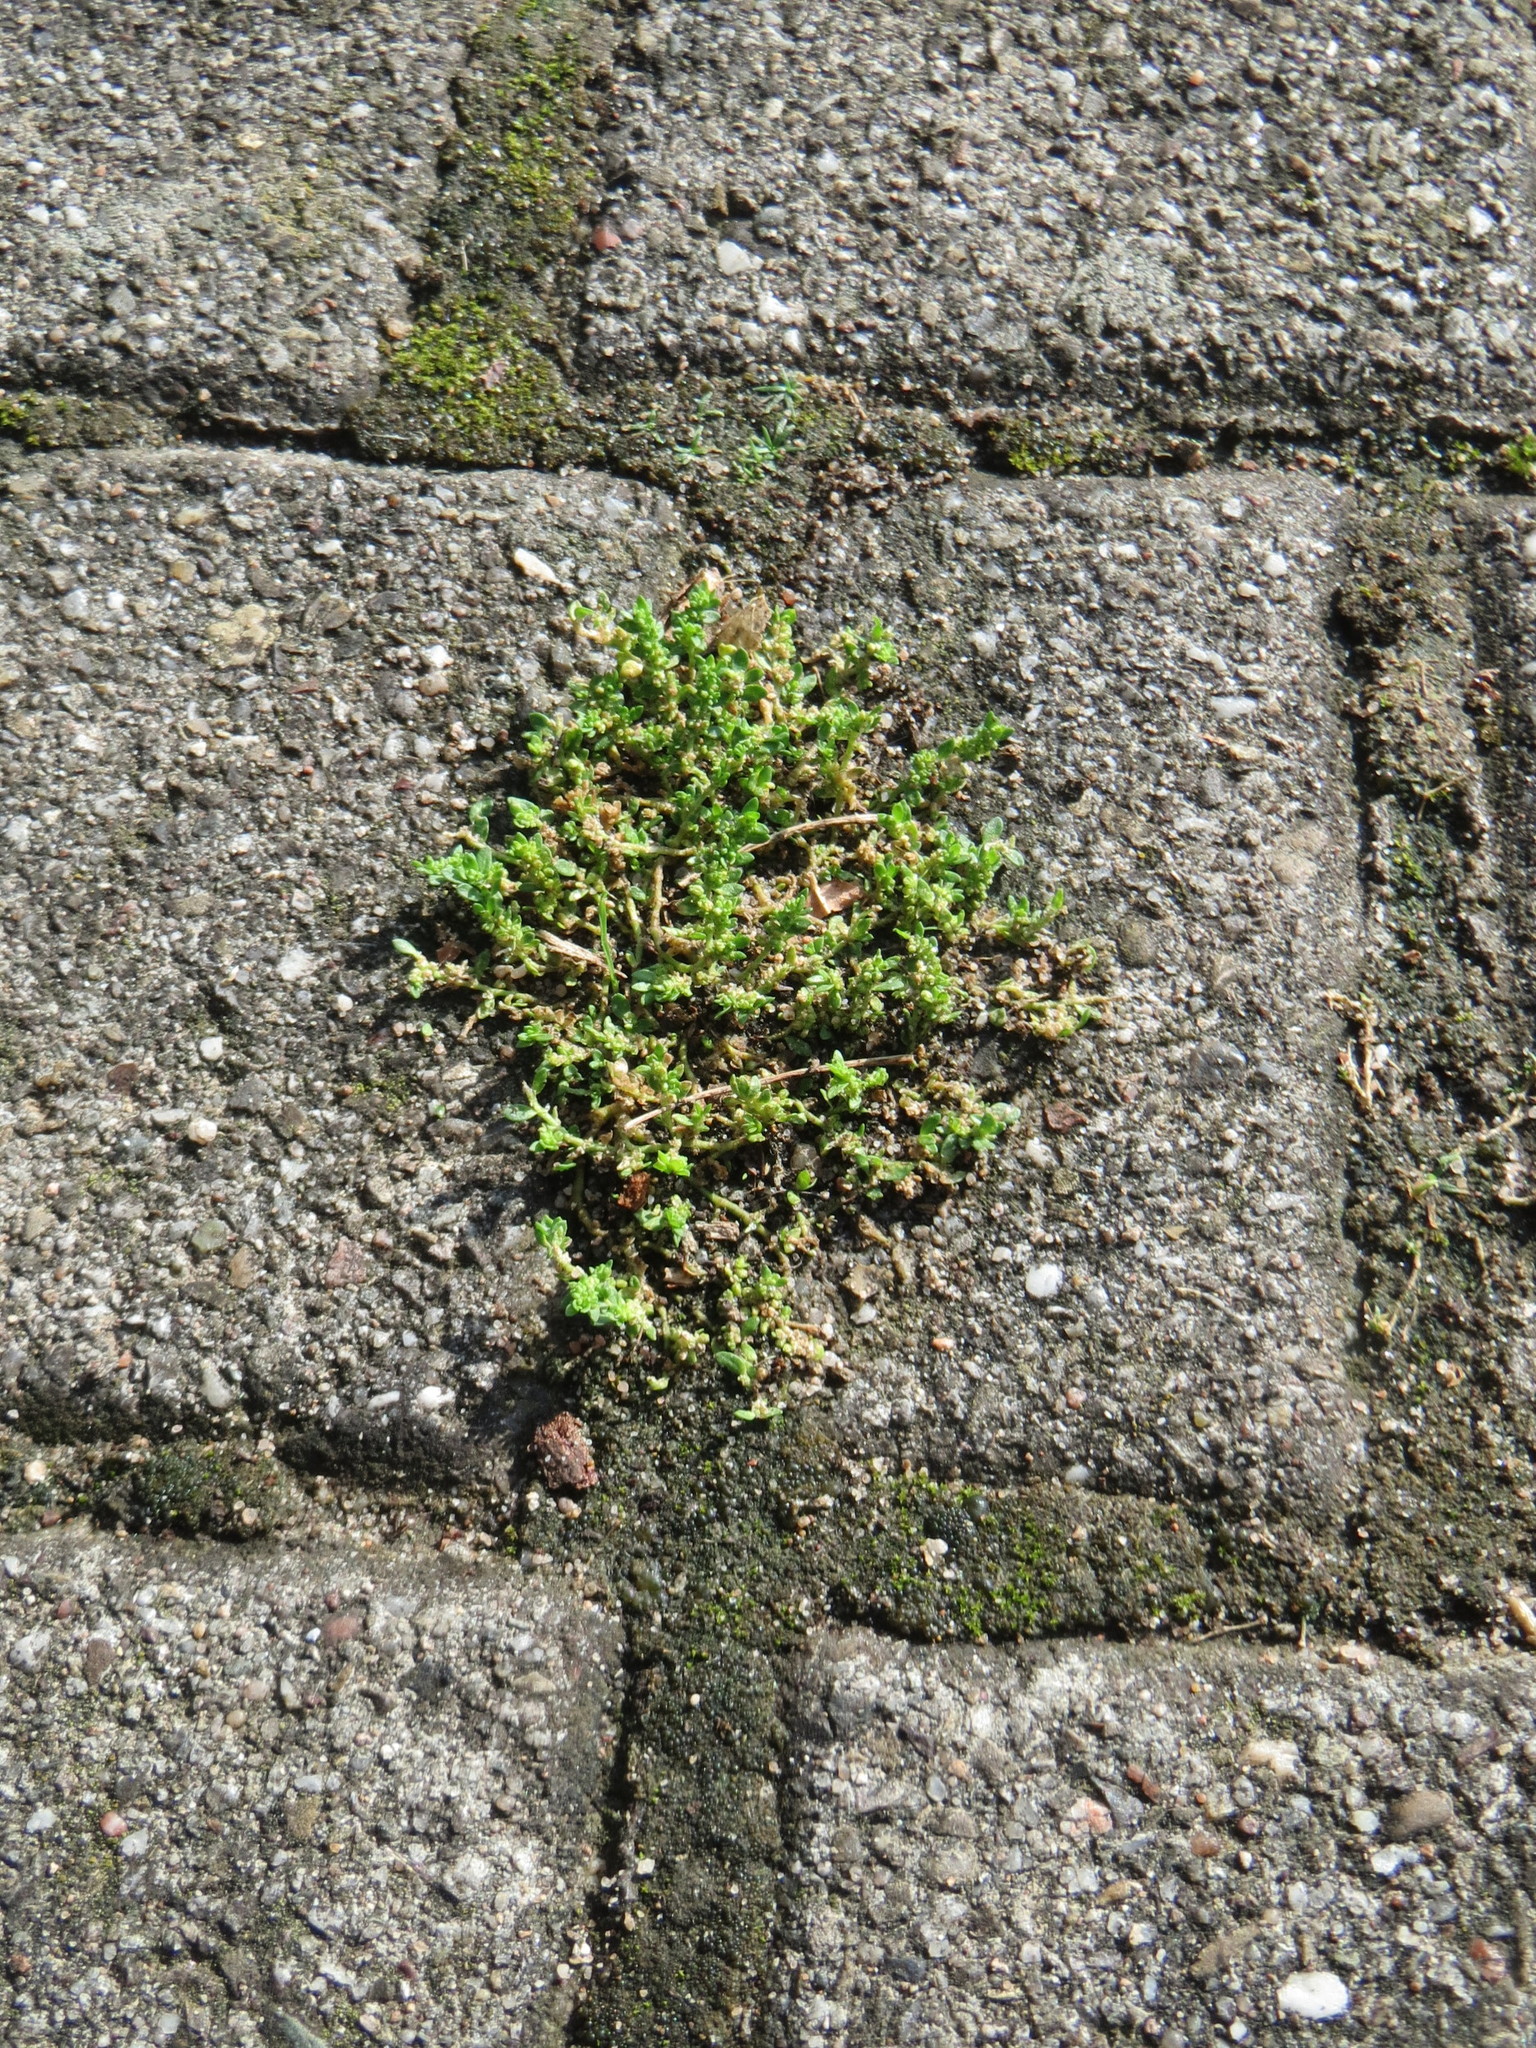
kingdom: Plantae
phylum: Tracheophyta
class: Magnoliopsida
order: Caryophyllales
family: Caryophyllaceae
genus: Herniaria
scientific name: Herniaria glabra
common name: Smooth rupturewort
